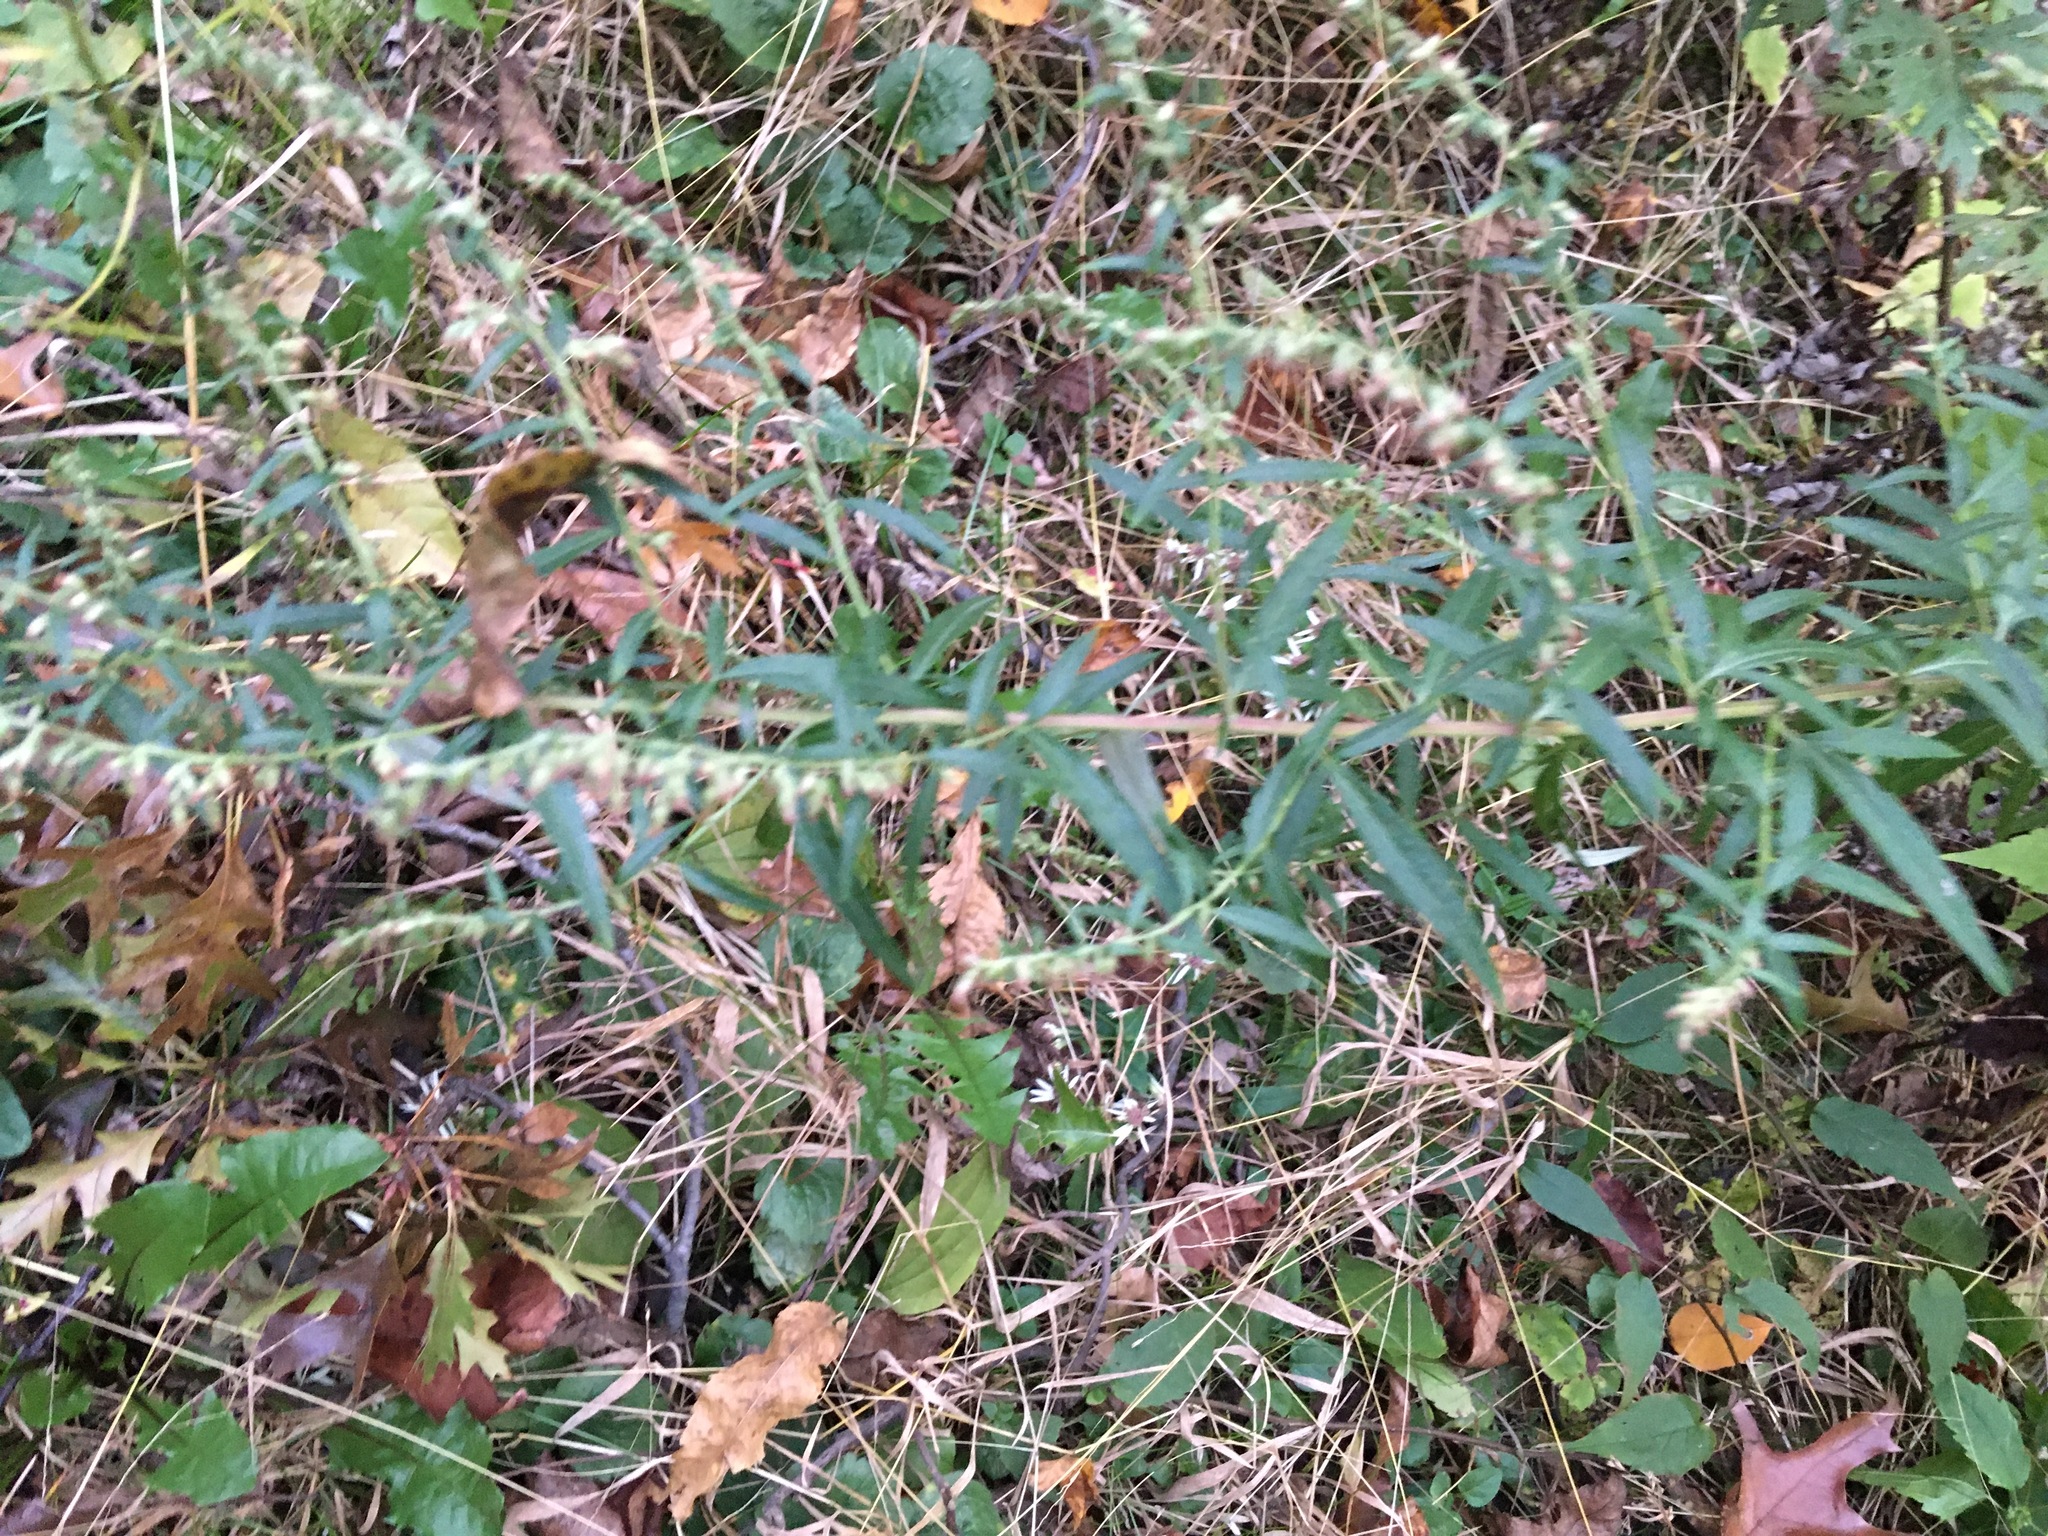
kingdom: Plantae
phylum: Tracheophyta
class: Magnoliopsida
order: Asterales
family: Asteraceae
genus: Artemisia
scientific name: Artemisia vulgaris
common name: Mugwort
